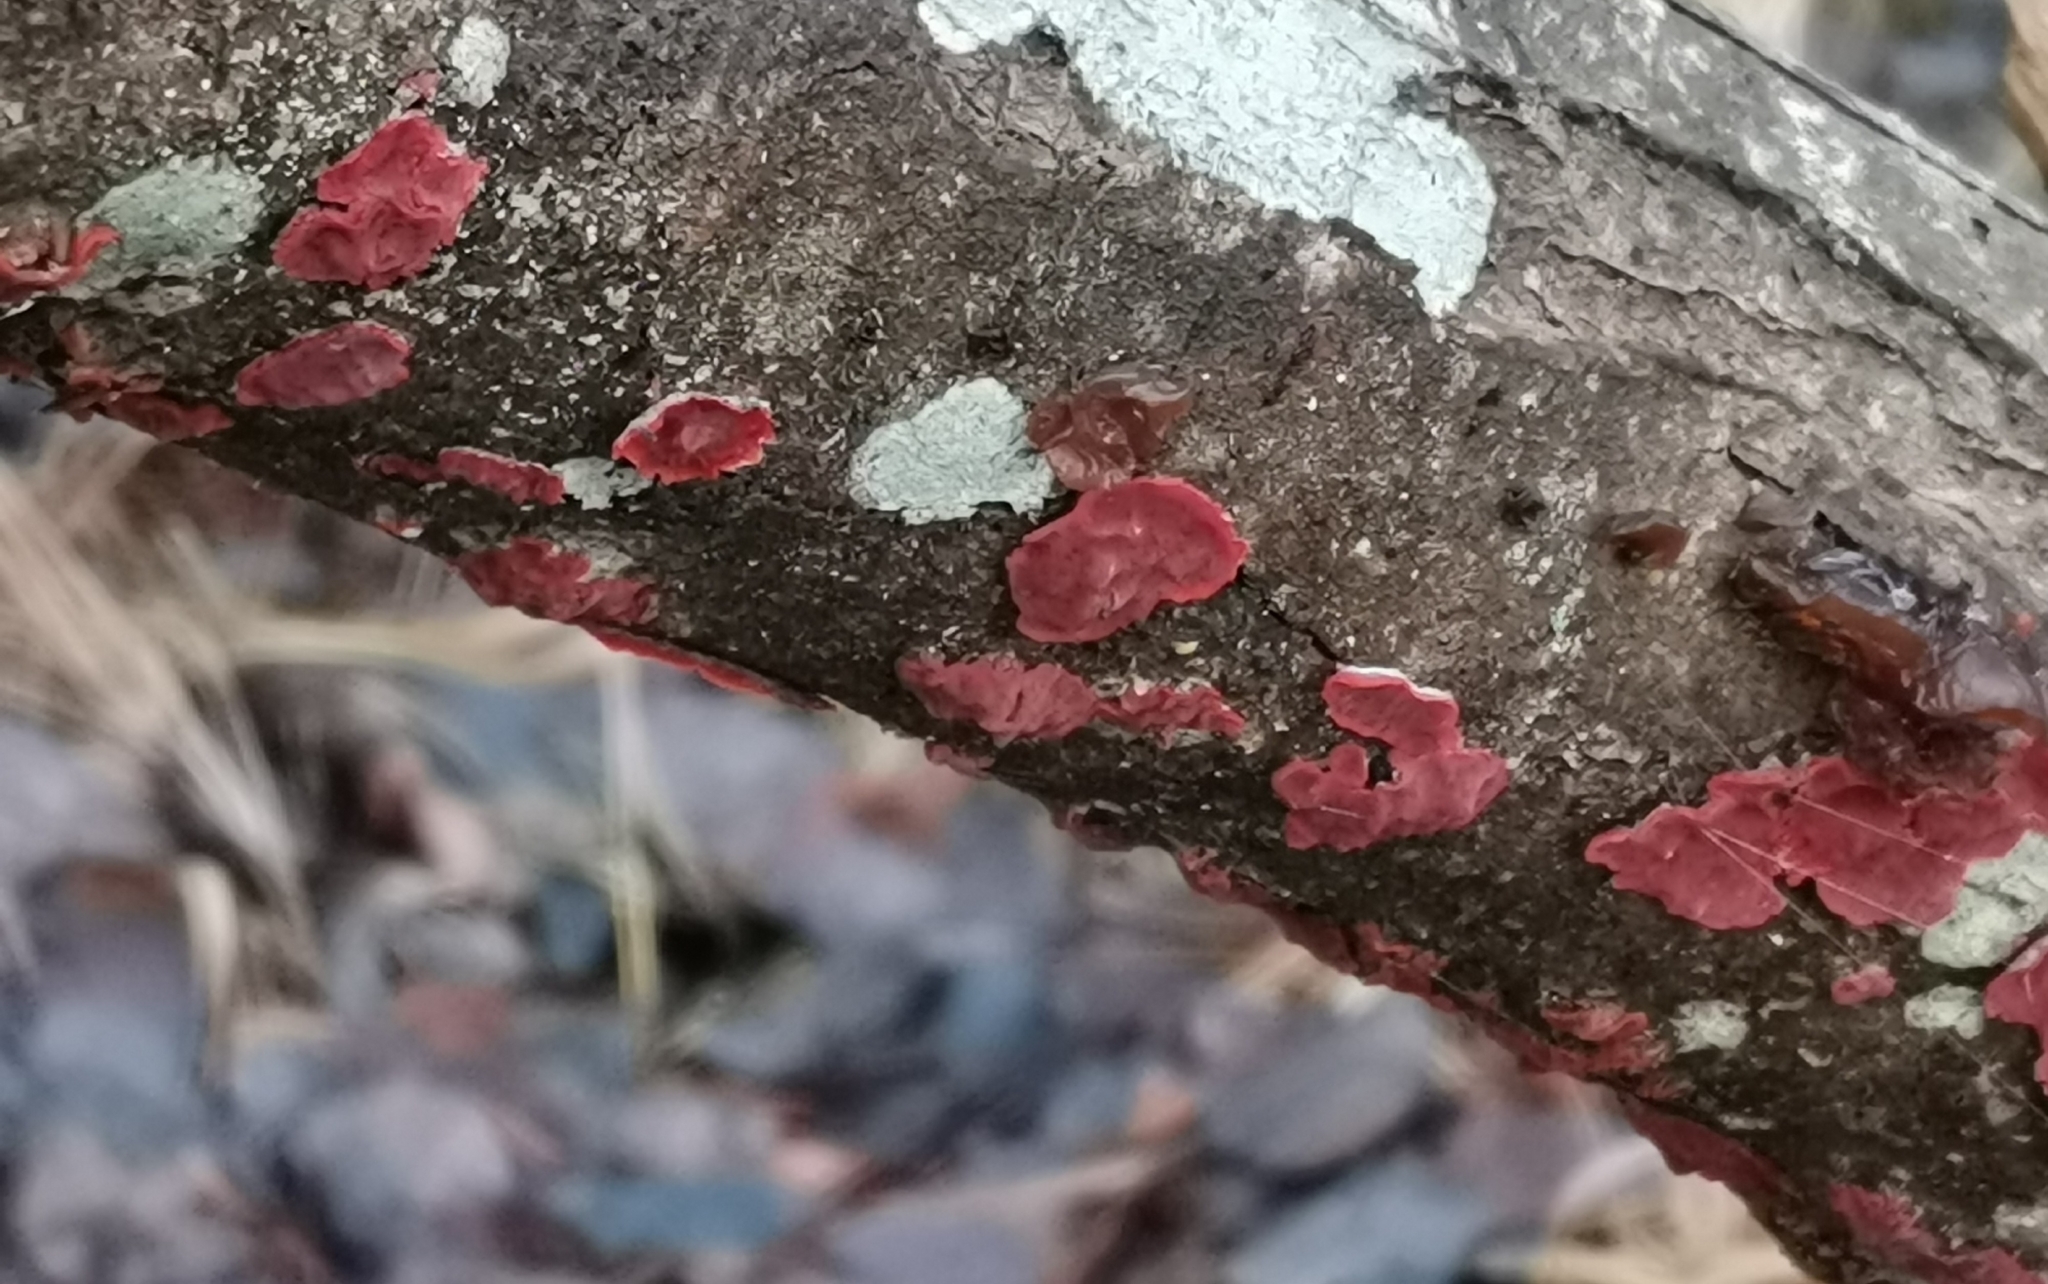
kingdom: Fungi
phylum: Basidiomycota
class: Agaricomycetes
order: Corticiales
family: Vuilleminiaceae
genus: Cytidia
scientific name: Cytidia salicina
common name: Scarlet splash
